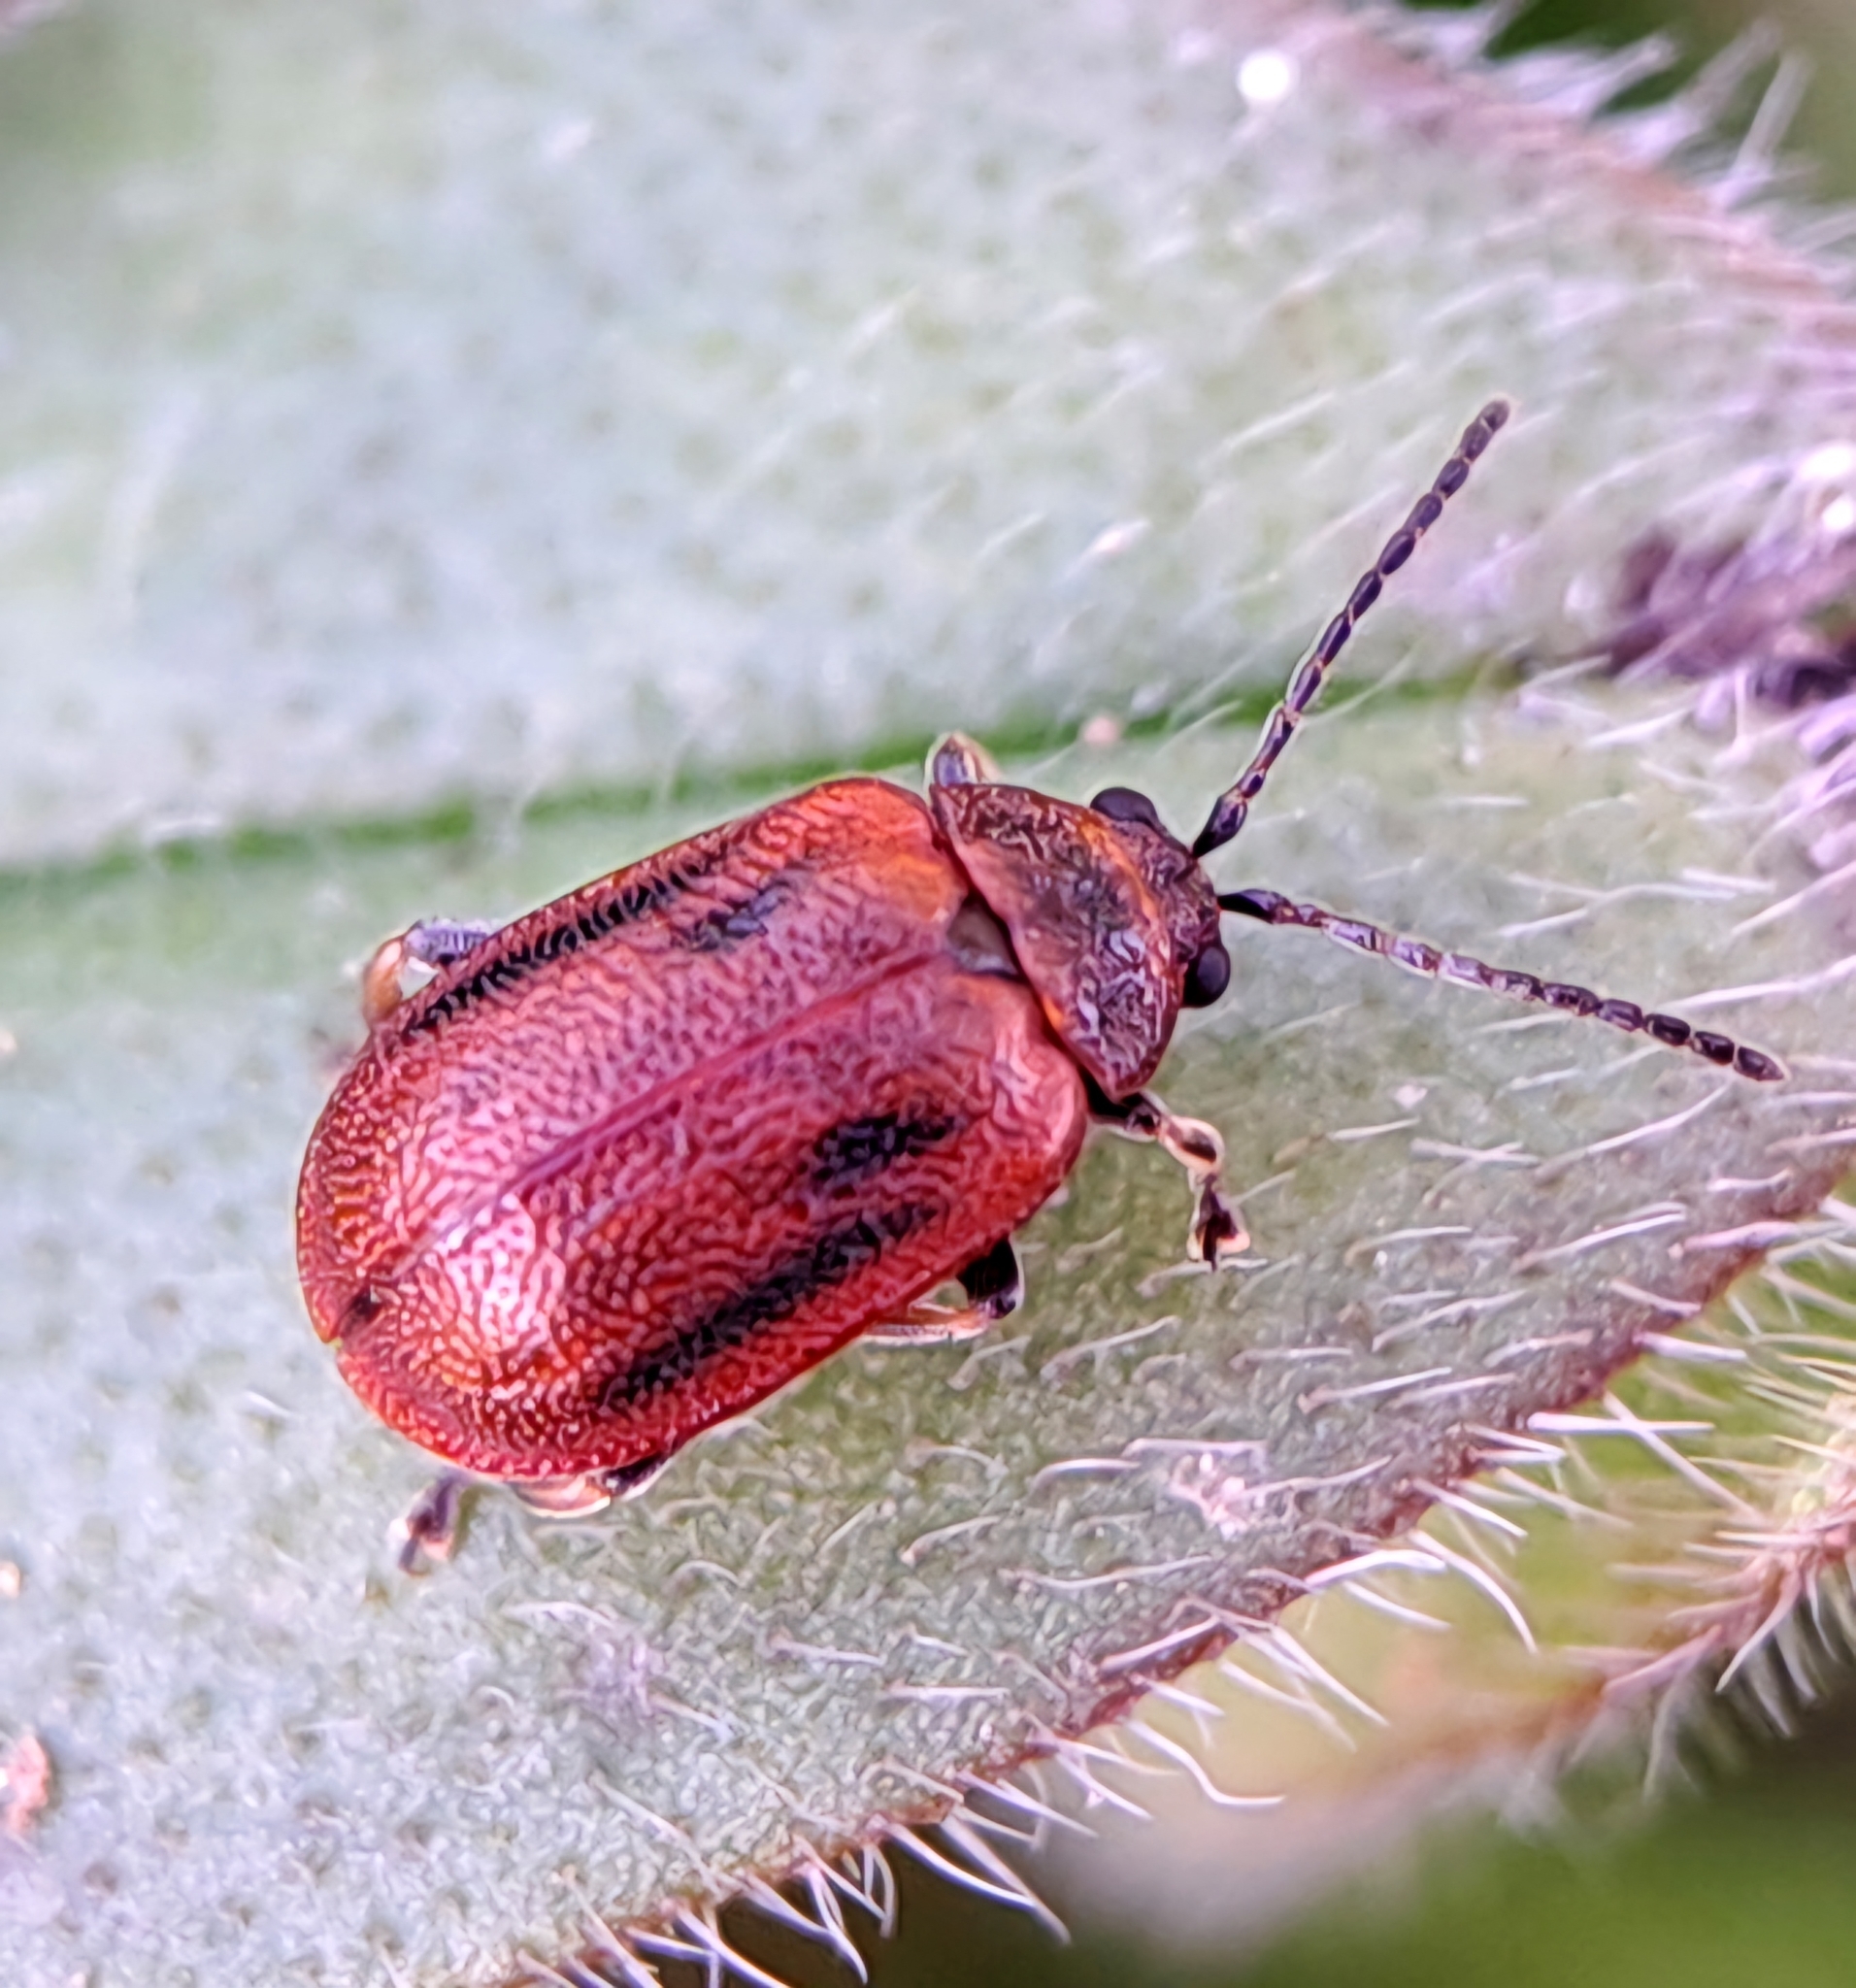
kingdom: Animalia
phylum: Arthropoda
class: Insecta
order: Coleoptera
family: Chrysomelidae
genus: Lochmaea
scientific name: Lochmaea crataegi
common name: Hawthorn leaf beetle
